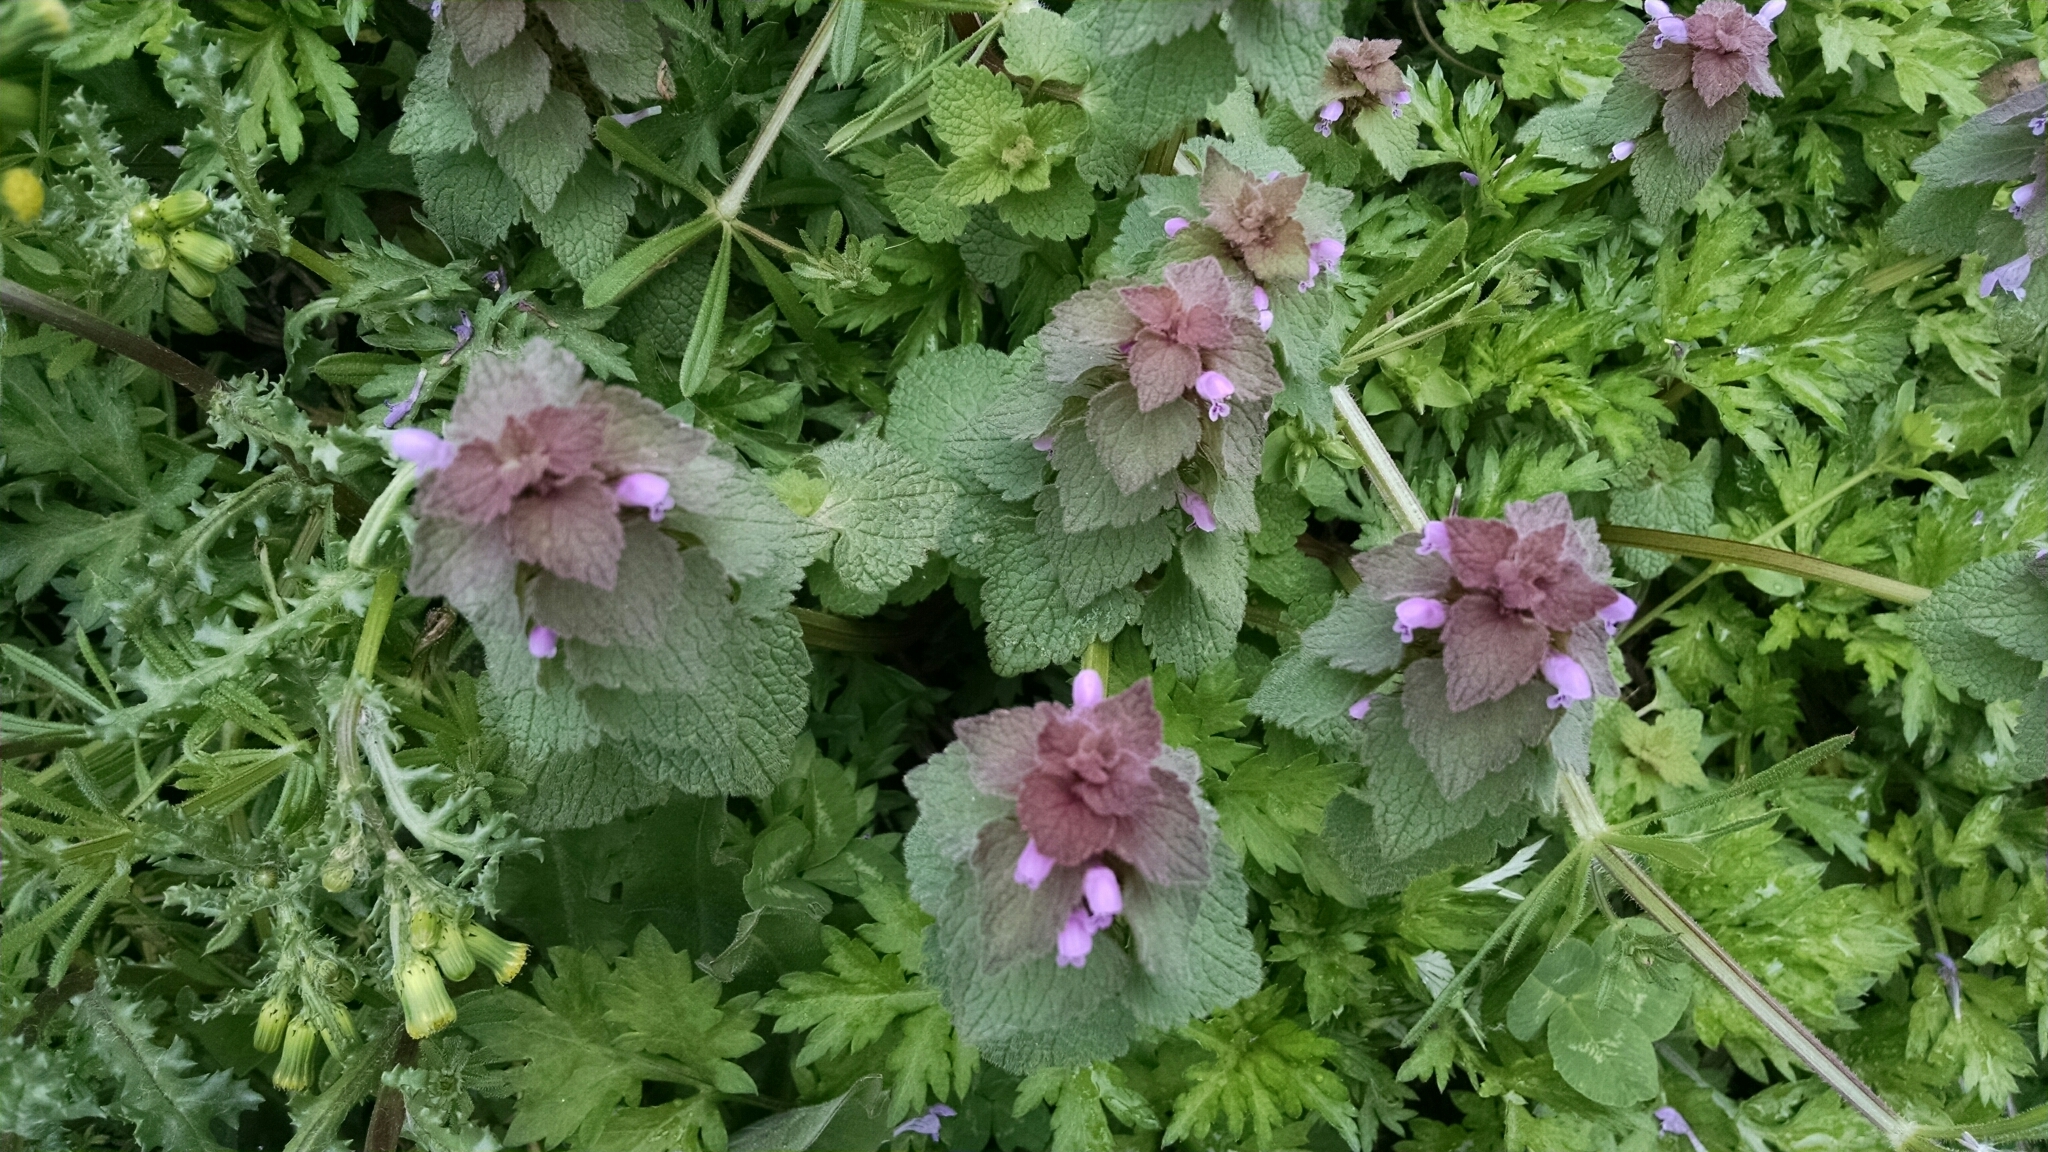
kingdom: Plantae
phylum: Tracheophyta
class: Magnoliopsida
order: Lamiales
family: Lamiaceae
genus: Lamium
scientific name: Lamium purpureum
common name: Red dead-nettle
